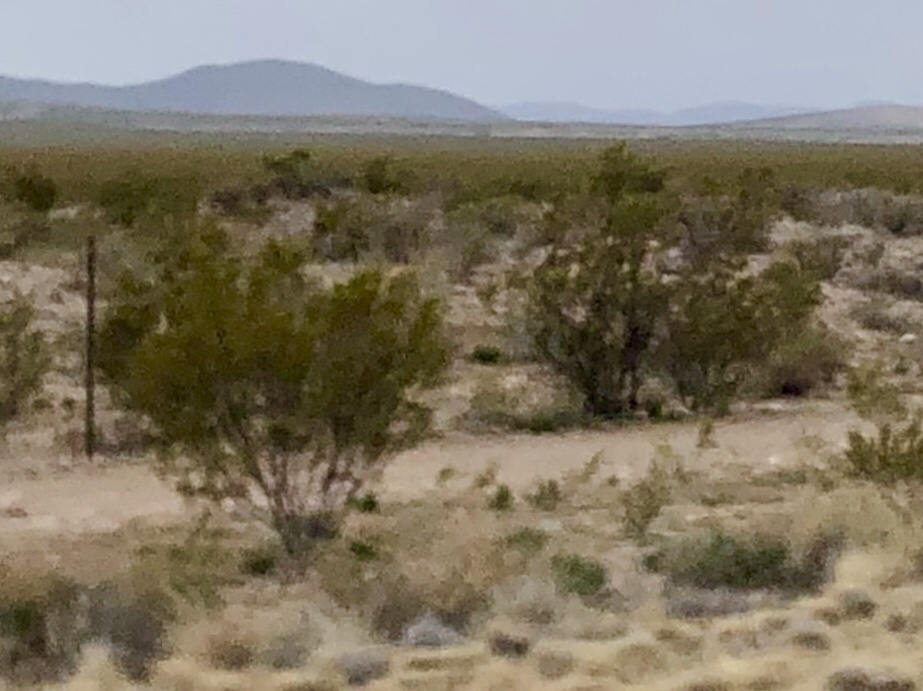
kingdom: Plantae
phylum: Tracheophyta
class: Magnoliopsida
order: Zygophyllales
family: Zygophyllaceae
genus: Larrea
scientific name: Larrea tridentata
